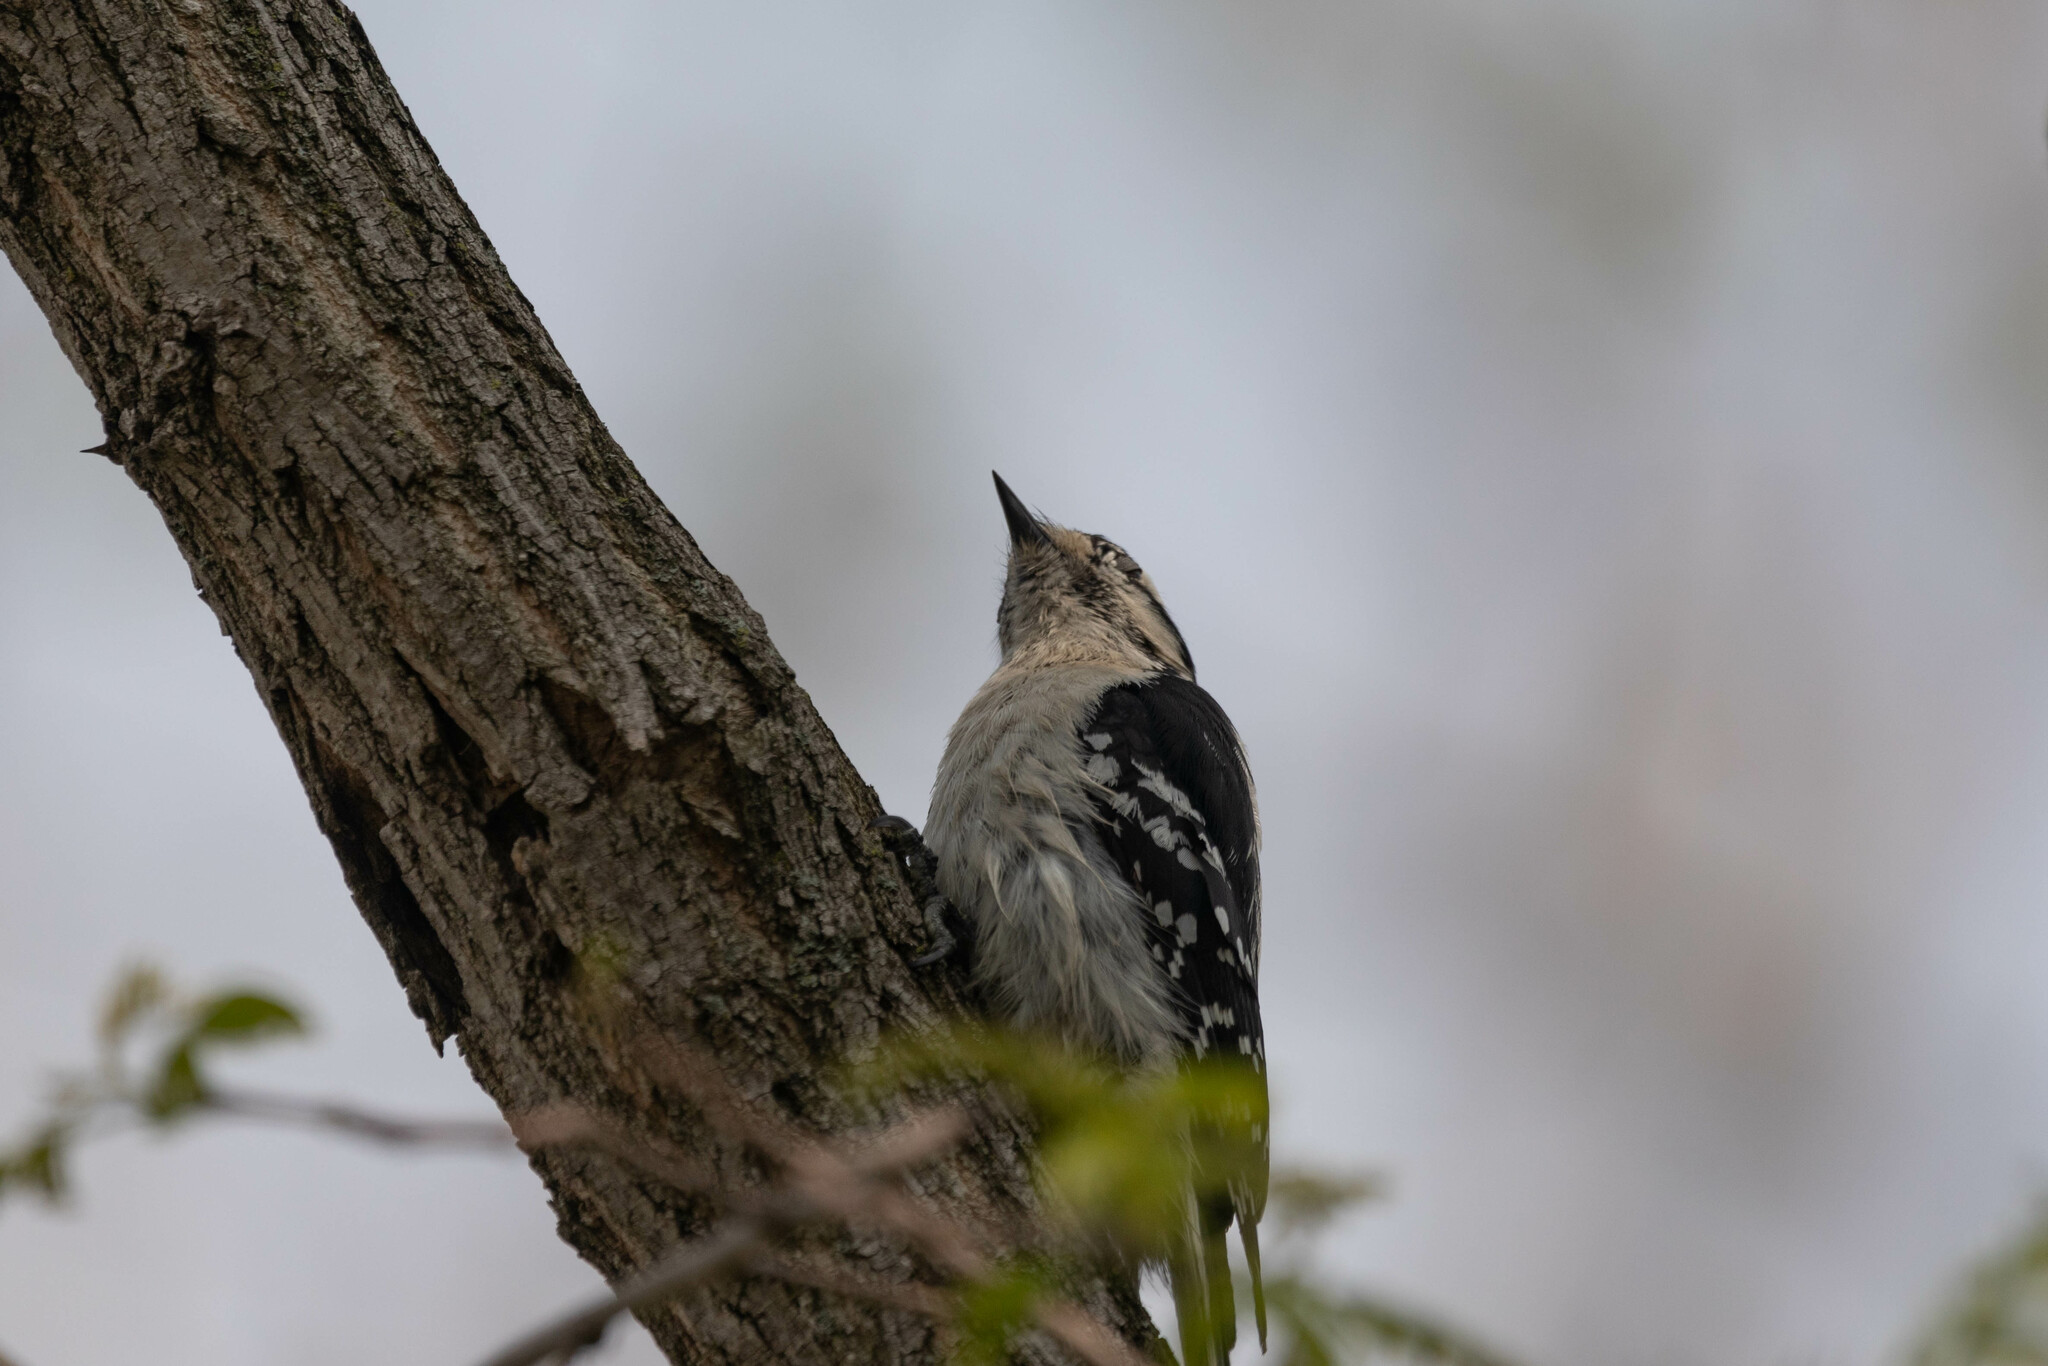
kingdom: Animalia
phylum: Chordata
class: Aves
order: Piciformes
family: Picidae
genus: Dryobates
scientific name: Dryobates pubescens
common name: Downy woodpecker
